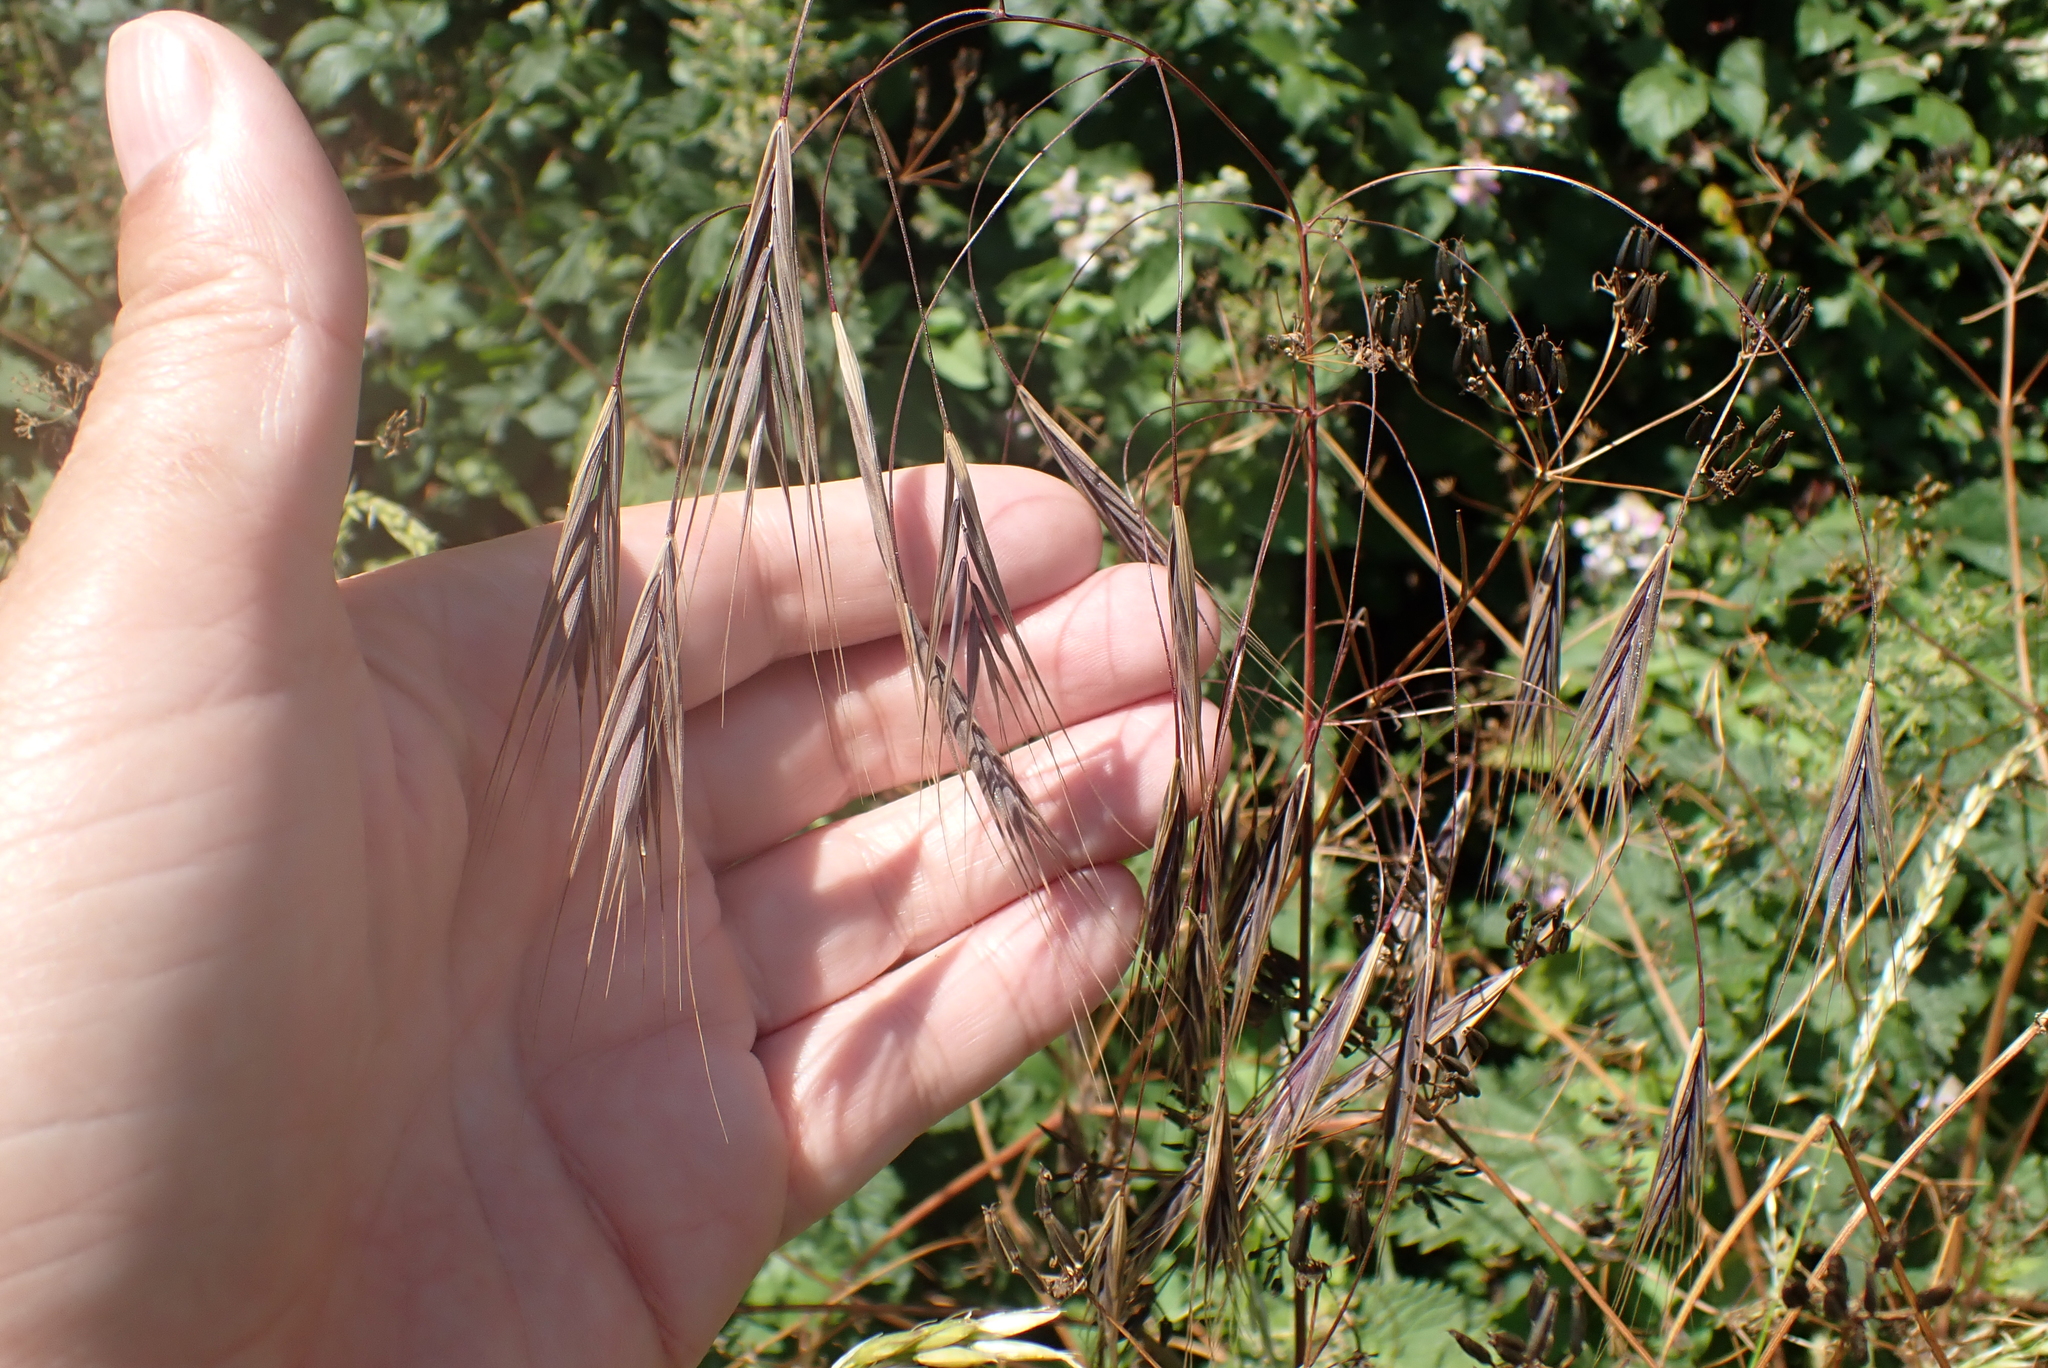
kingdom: Plantae
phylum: Tracheophyta
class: Liliopsida
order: Poales
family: Poaceae
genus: Bromus
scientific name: Bromus sterilis
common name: Poverty brome
